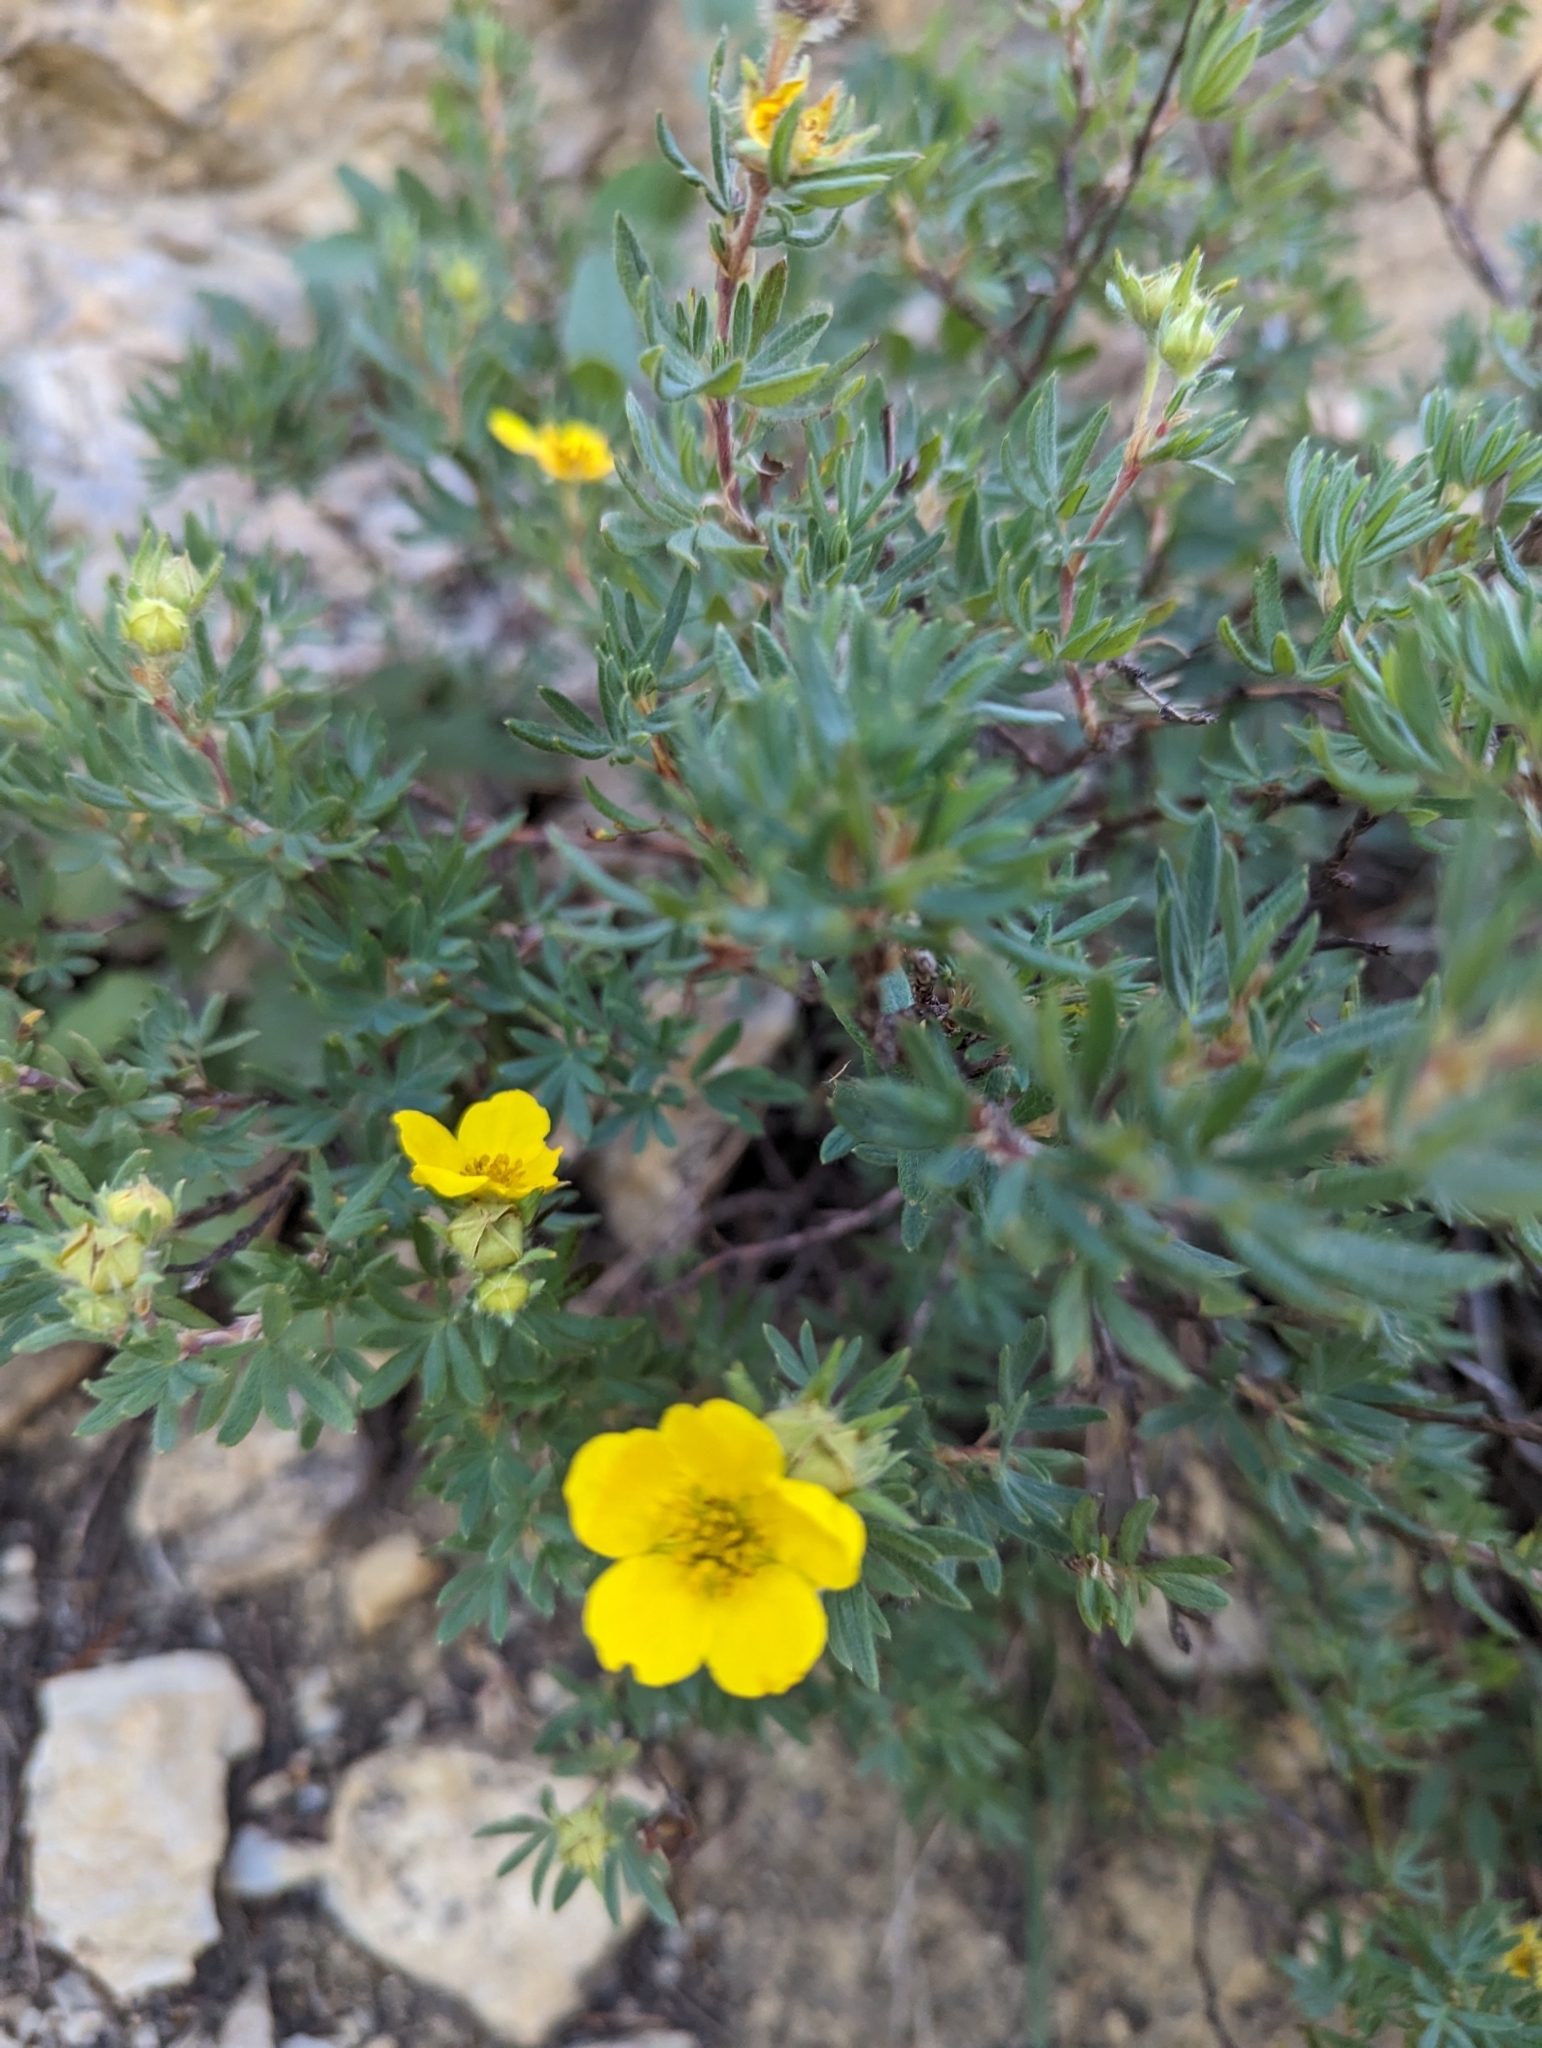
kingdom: Plantae
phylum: Tracheophyta
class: Magnoliopsida
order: Rosales
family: Rosaceae
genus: Dasiphora
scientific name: Dasiphora fruticosa
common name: Shrubby cinquefoil
